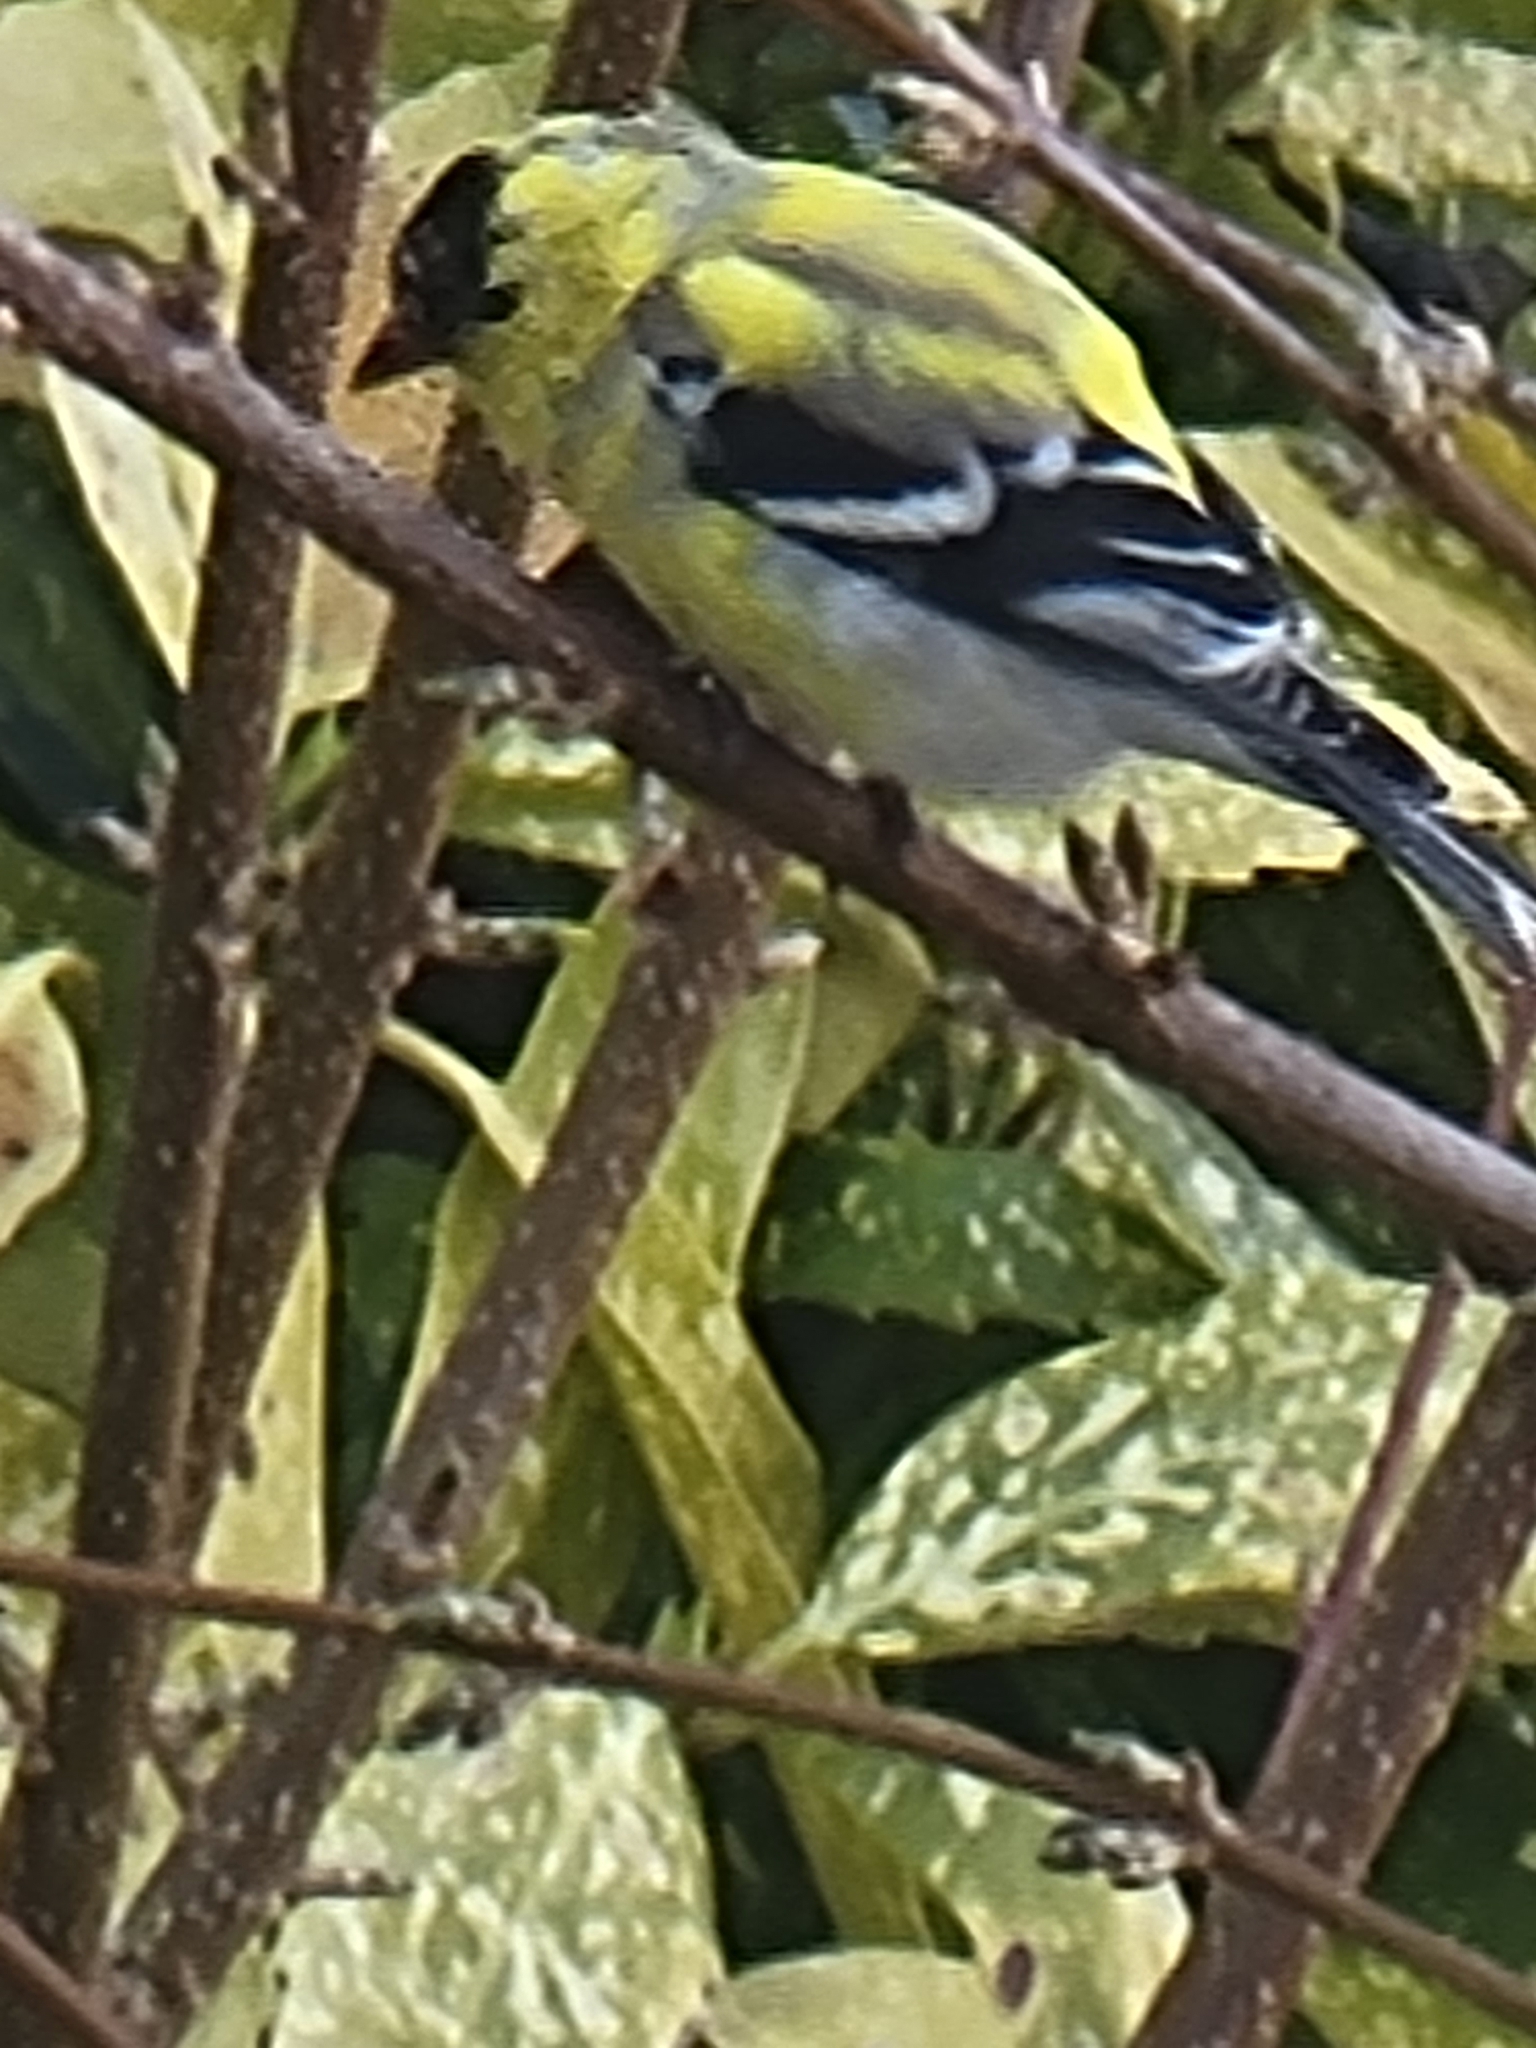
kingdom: Animalia
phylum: Chordata
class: Aves
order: Passeriformes
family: Fringillidae
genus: Spinus
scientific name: Spinus tristis
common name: American goldfinch
